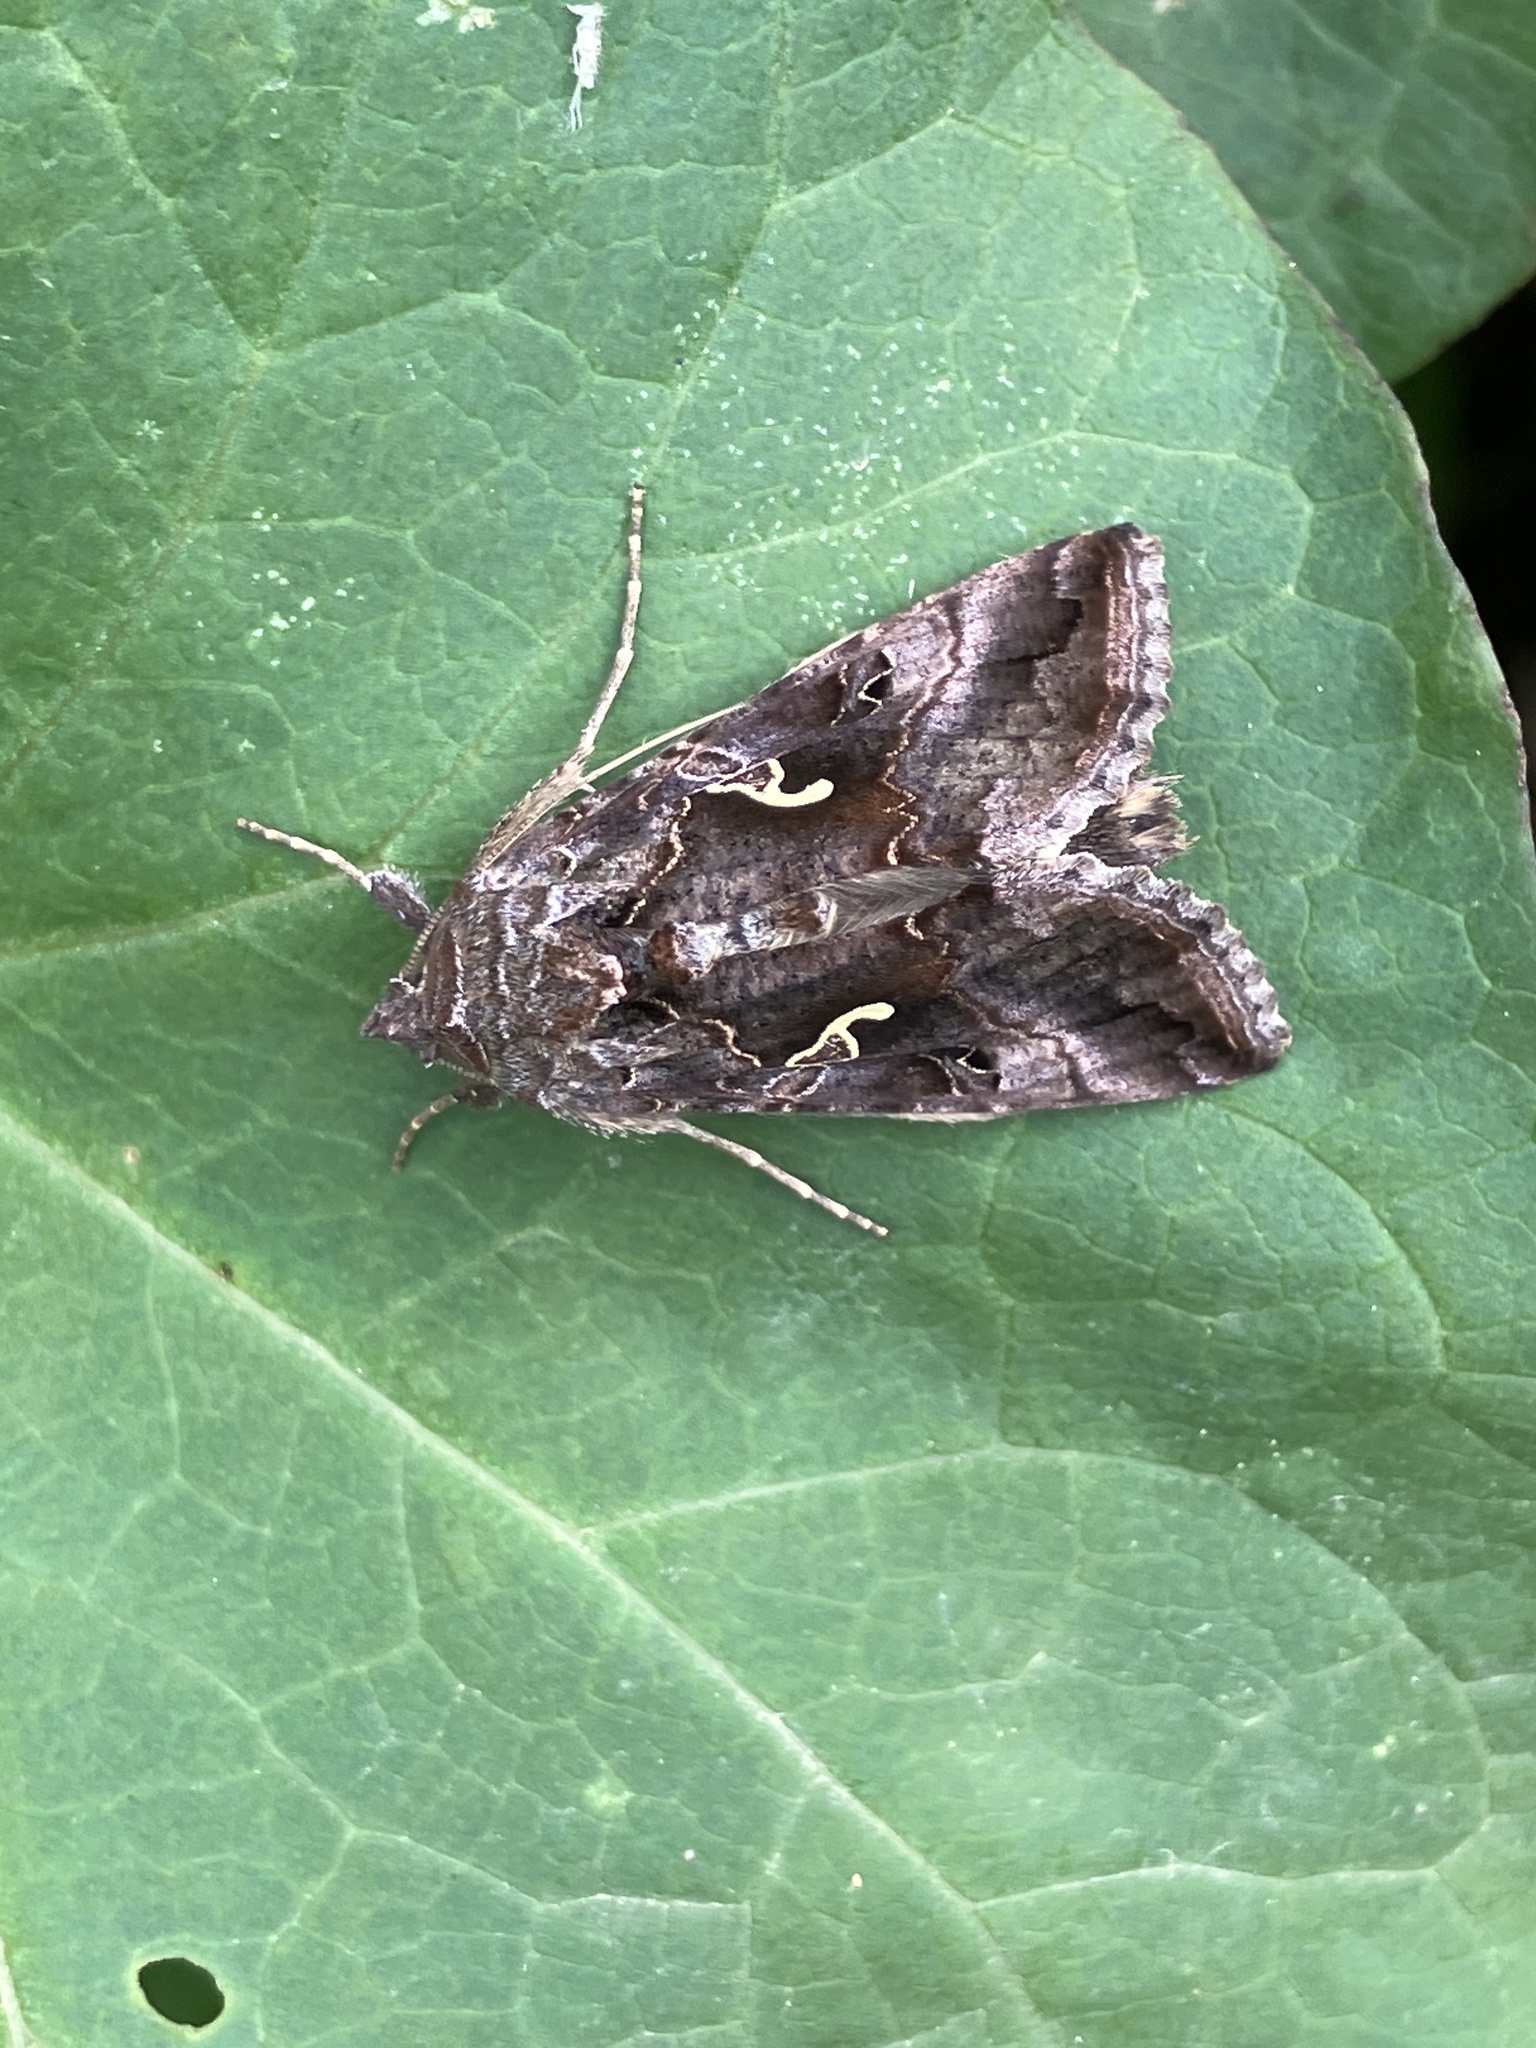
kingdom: Animalia
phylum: Arthropoda
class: Insecta
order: Lepidoptera
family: Noctuidae
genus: Autographa
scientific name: Autographa gamma
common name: Silver y
